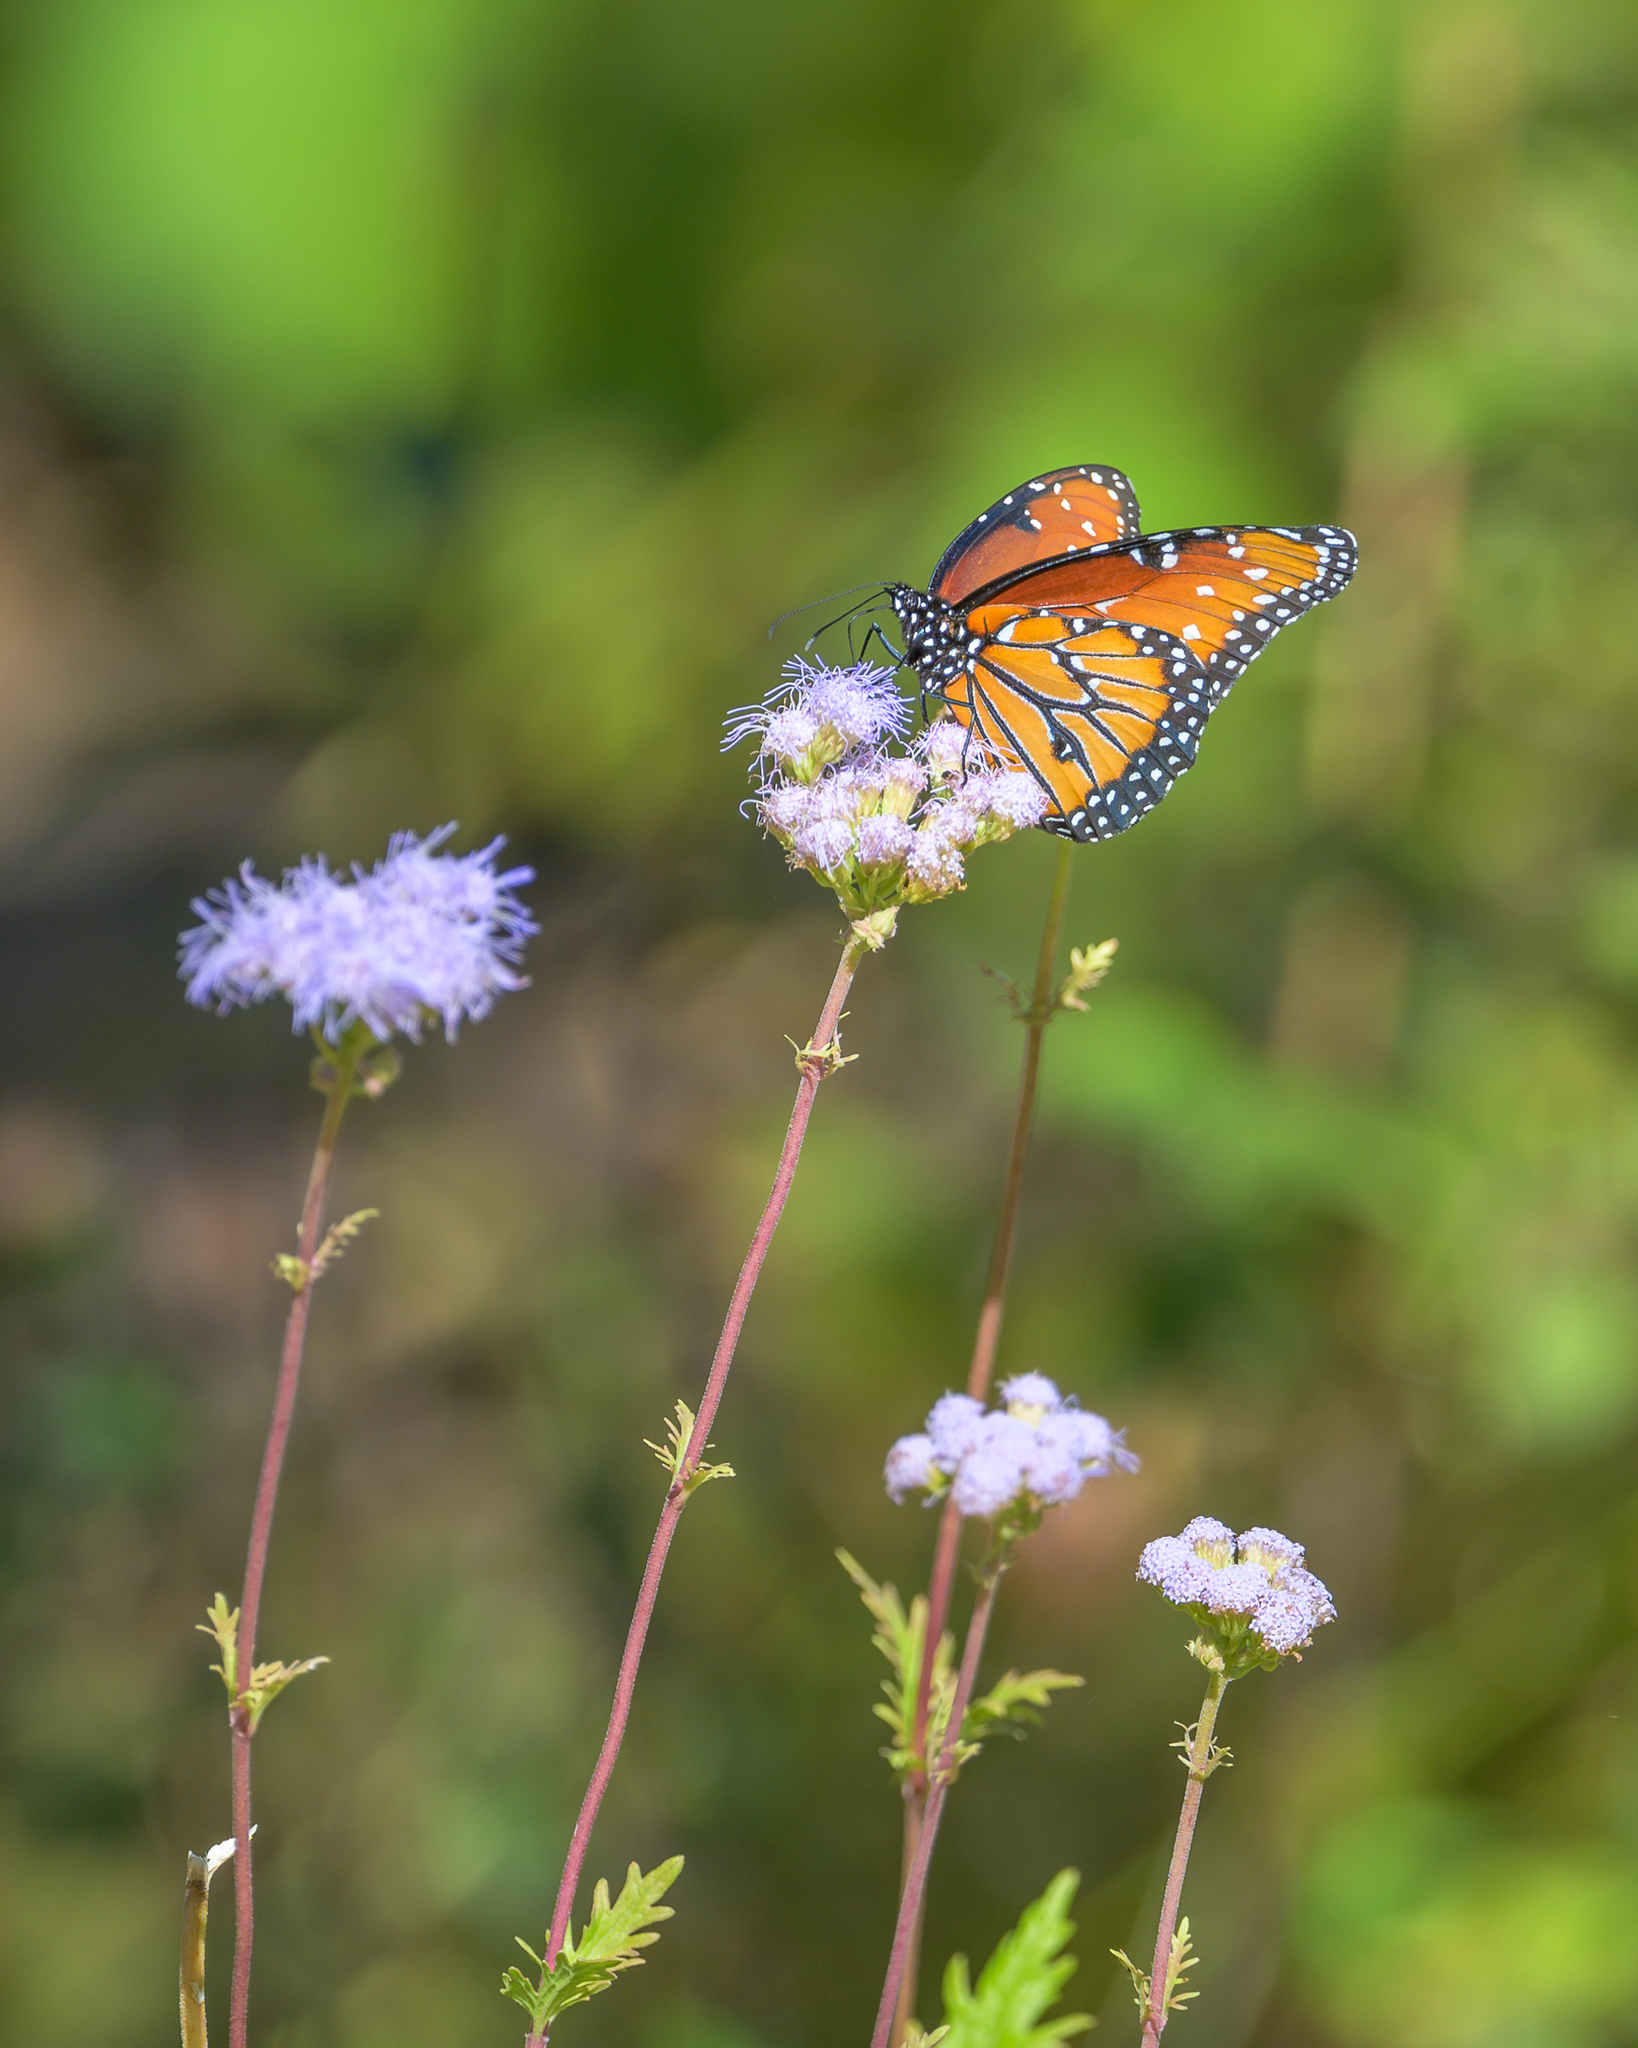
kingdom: Animalia
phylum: Arthropoda
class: Insecta
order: Lepidoptera
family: Nymphalidae
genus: Danaus
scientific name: Danaus gilippus
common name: Queen
